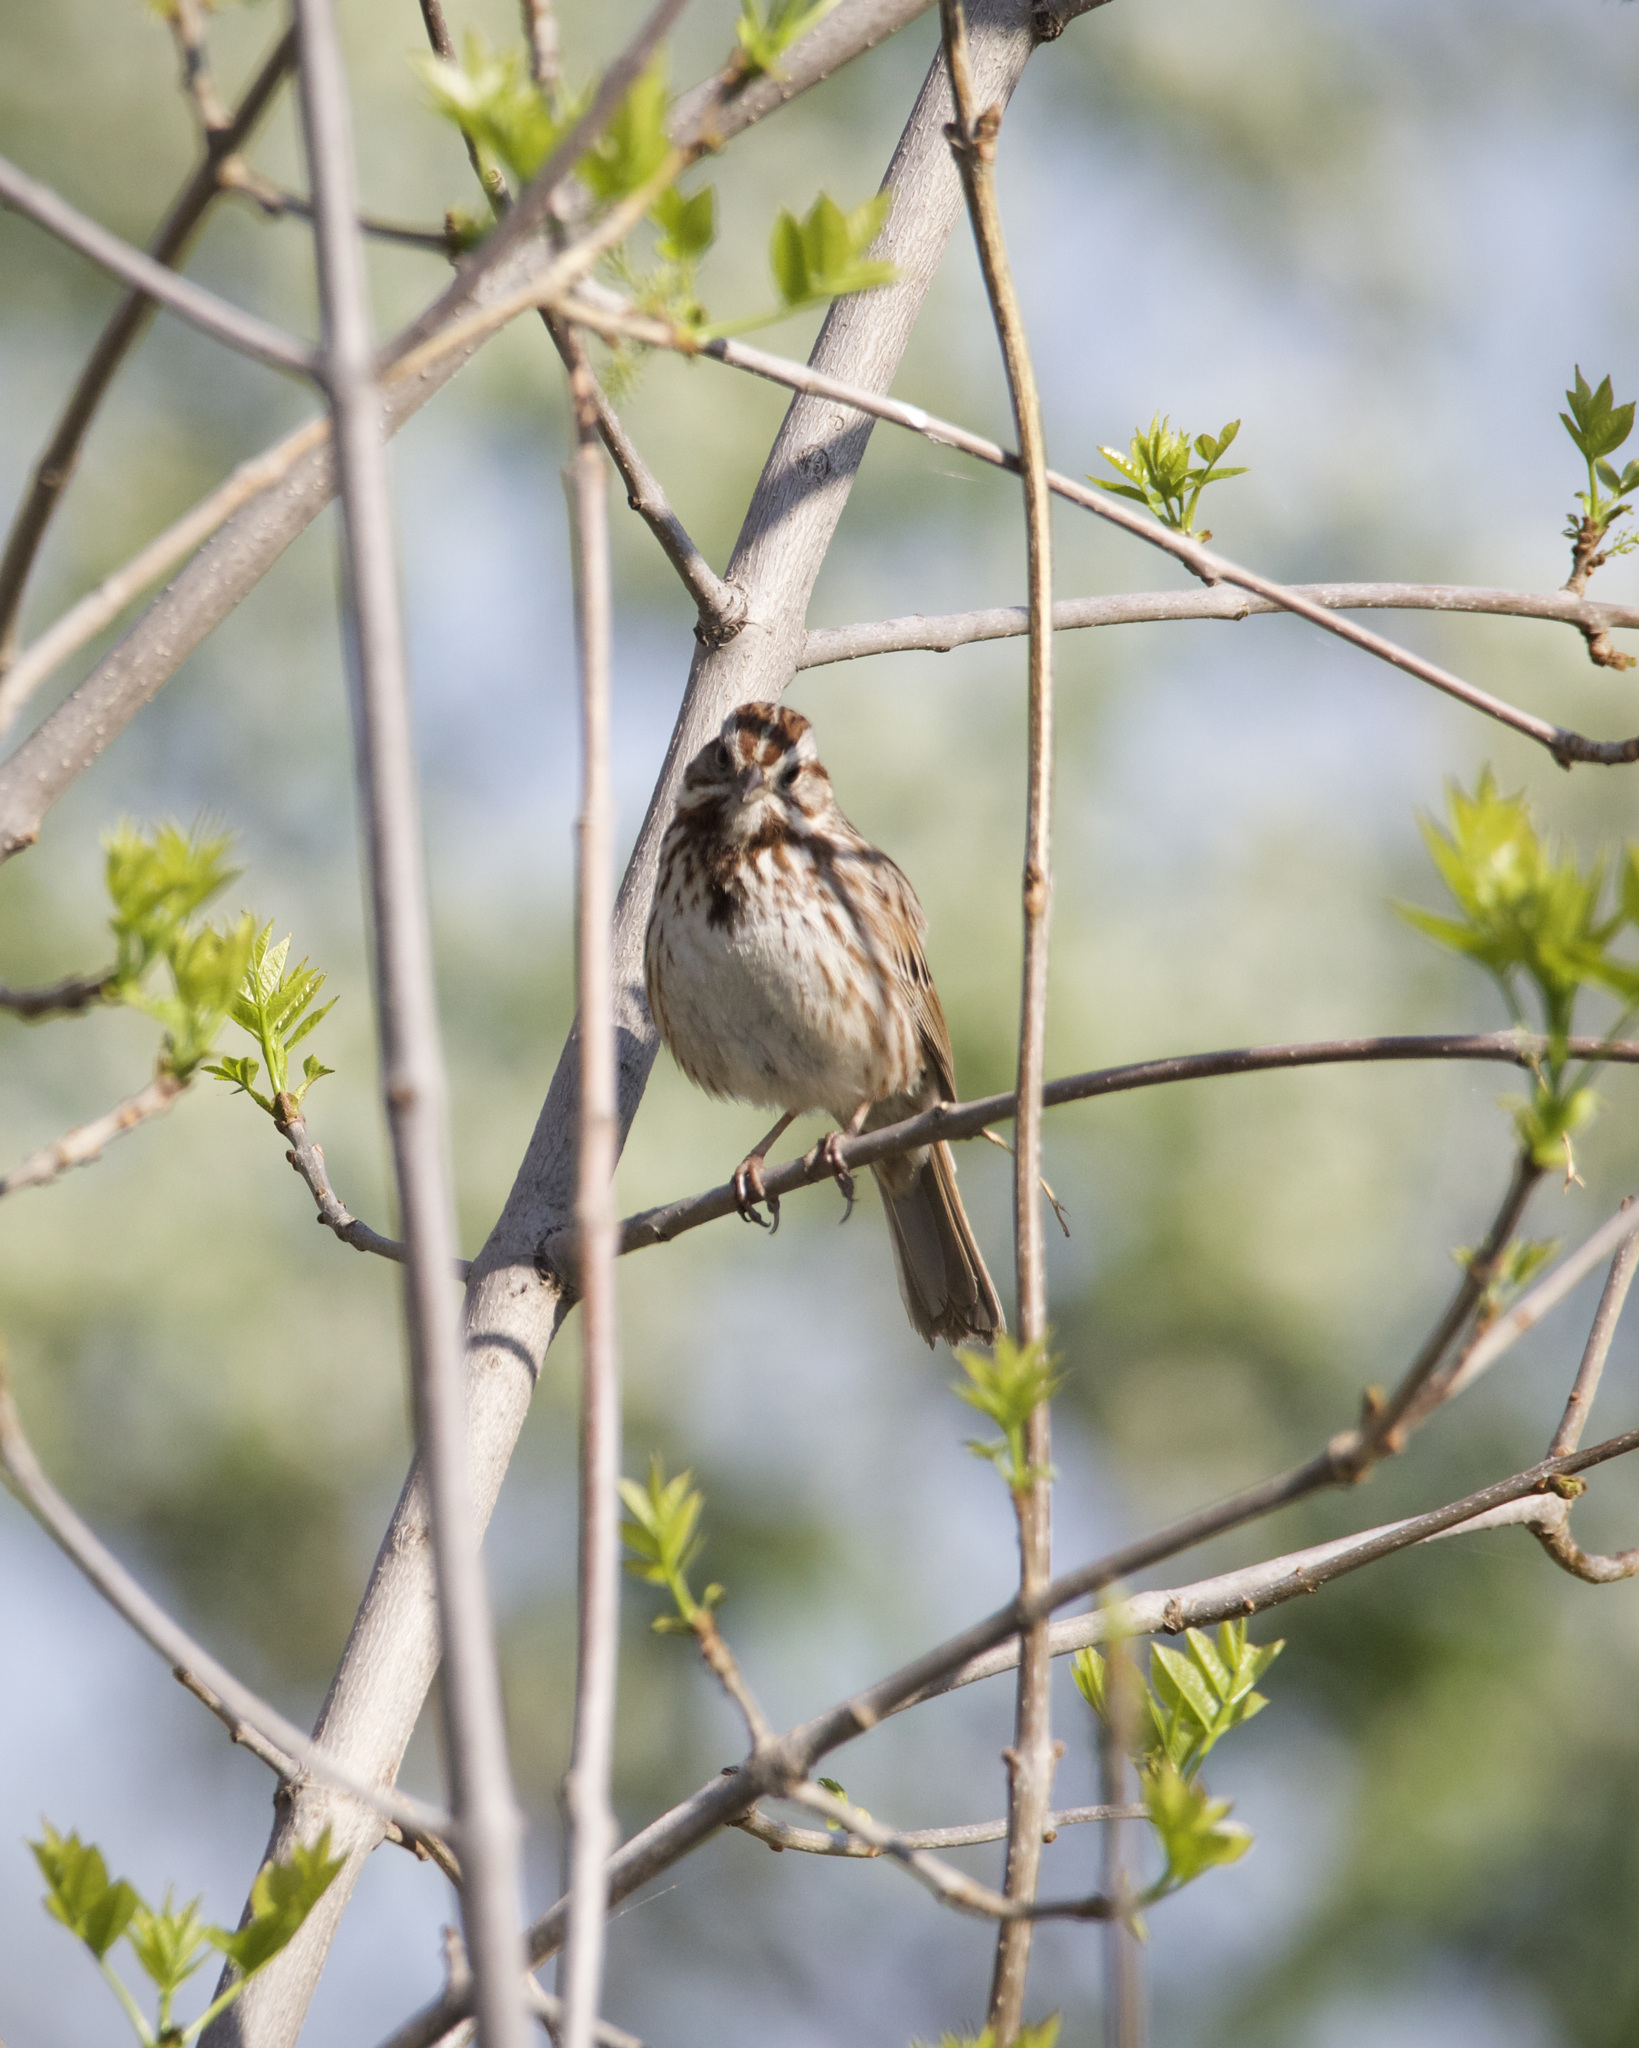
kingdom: Animalia
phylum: Chordata
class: Aves
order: Passeriformes
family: Passerellidae
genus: Melospiza
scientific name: Melospiza melodia
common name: Song sparrow
